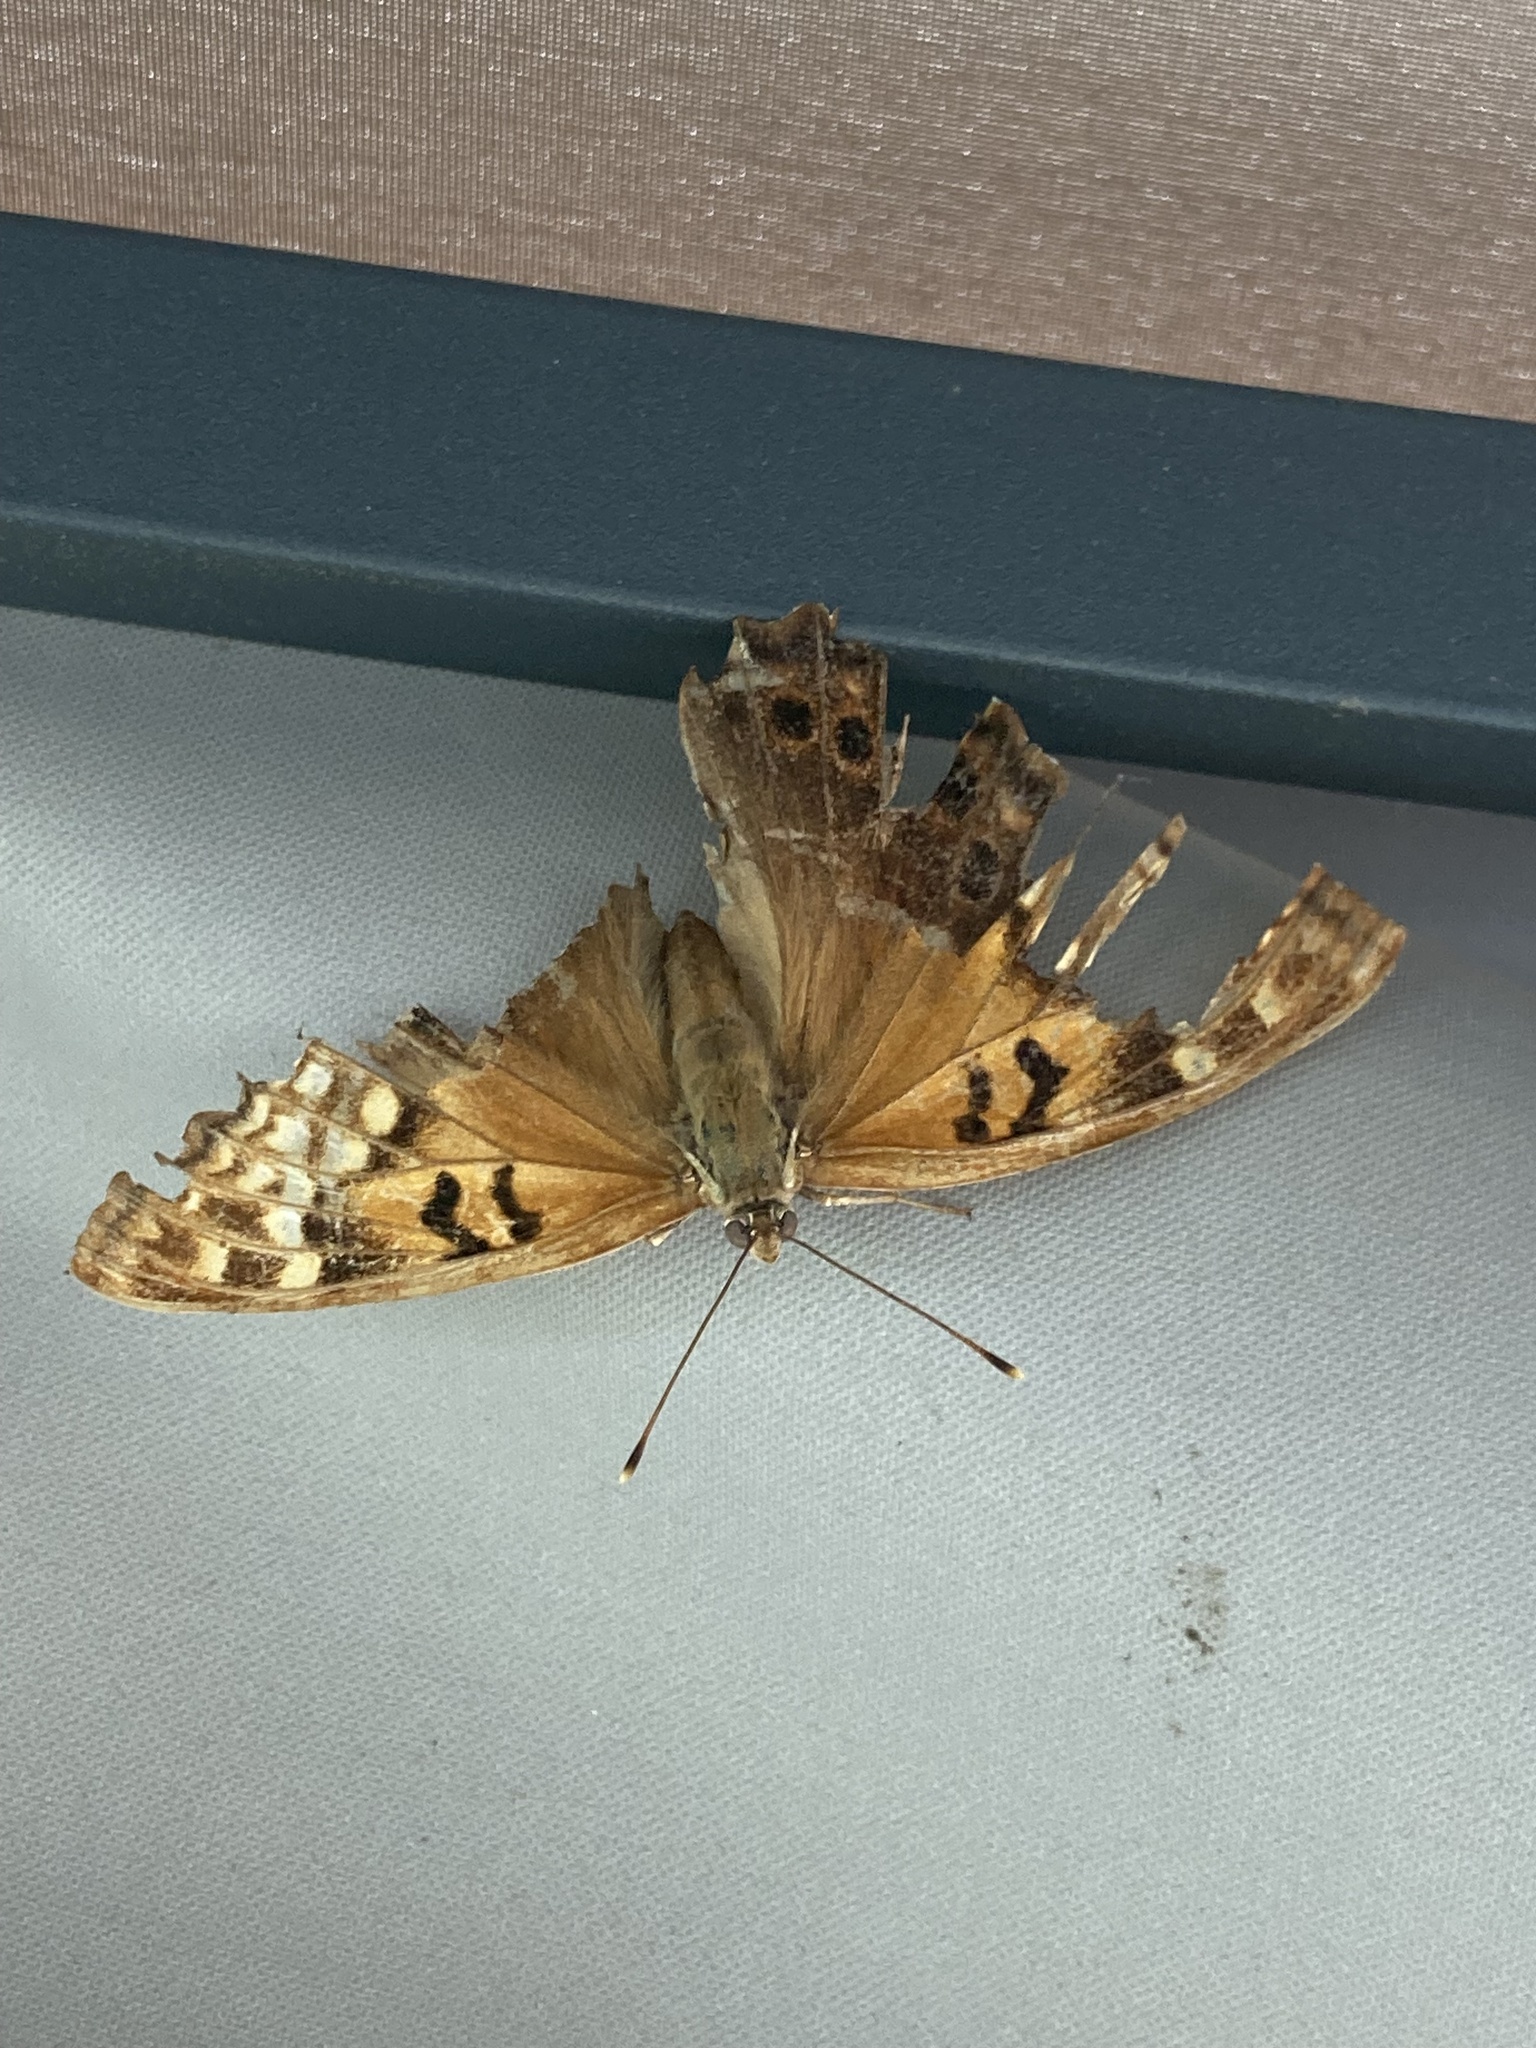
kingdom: Animalia
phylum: Arthropoda
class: Insecta
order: Lepidoptera
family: Nymphalidae
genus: Asterocampa
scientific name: Asterocampa clyton
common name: Tawny emperor
